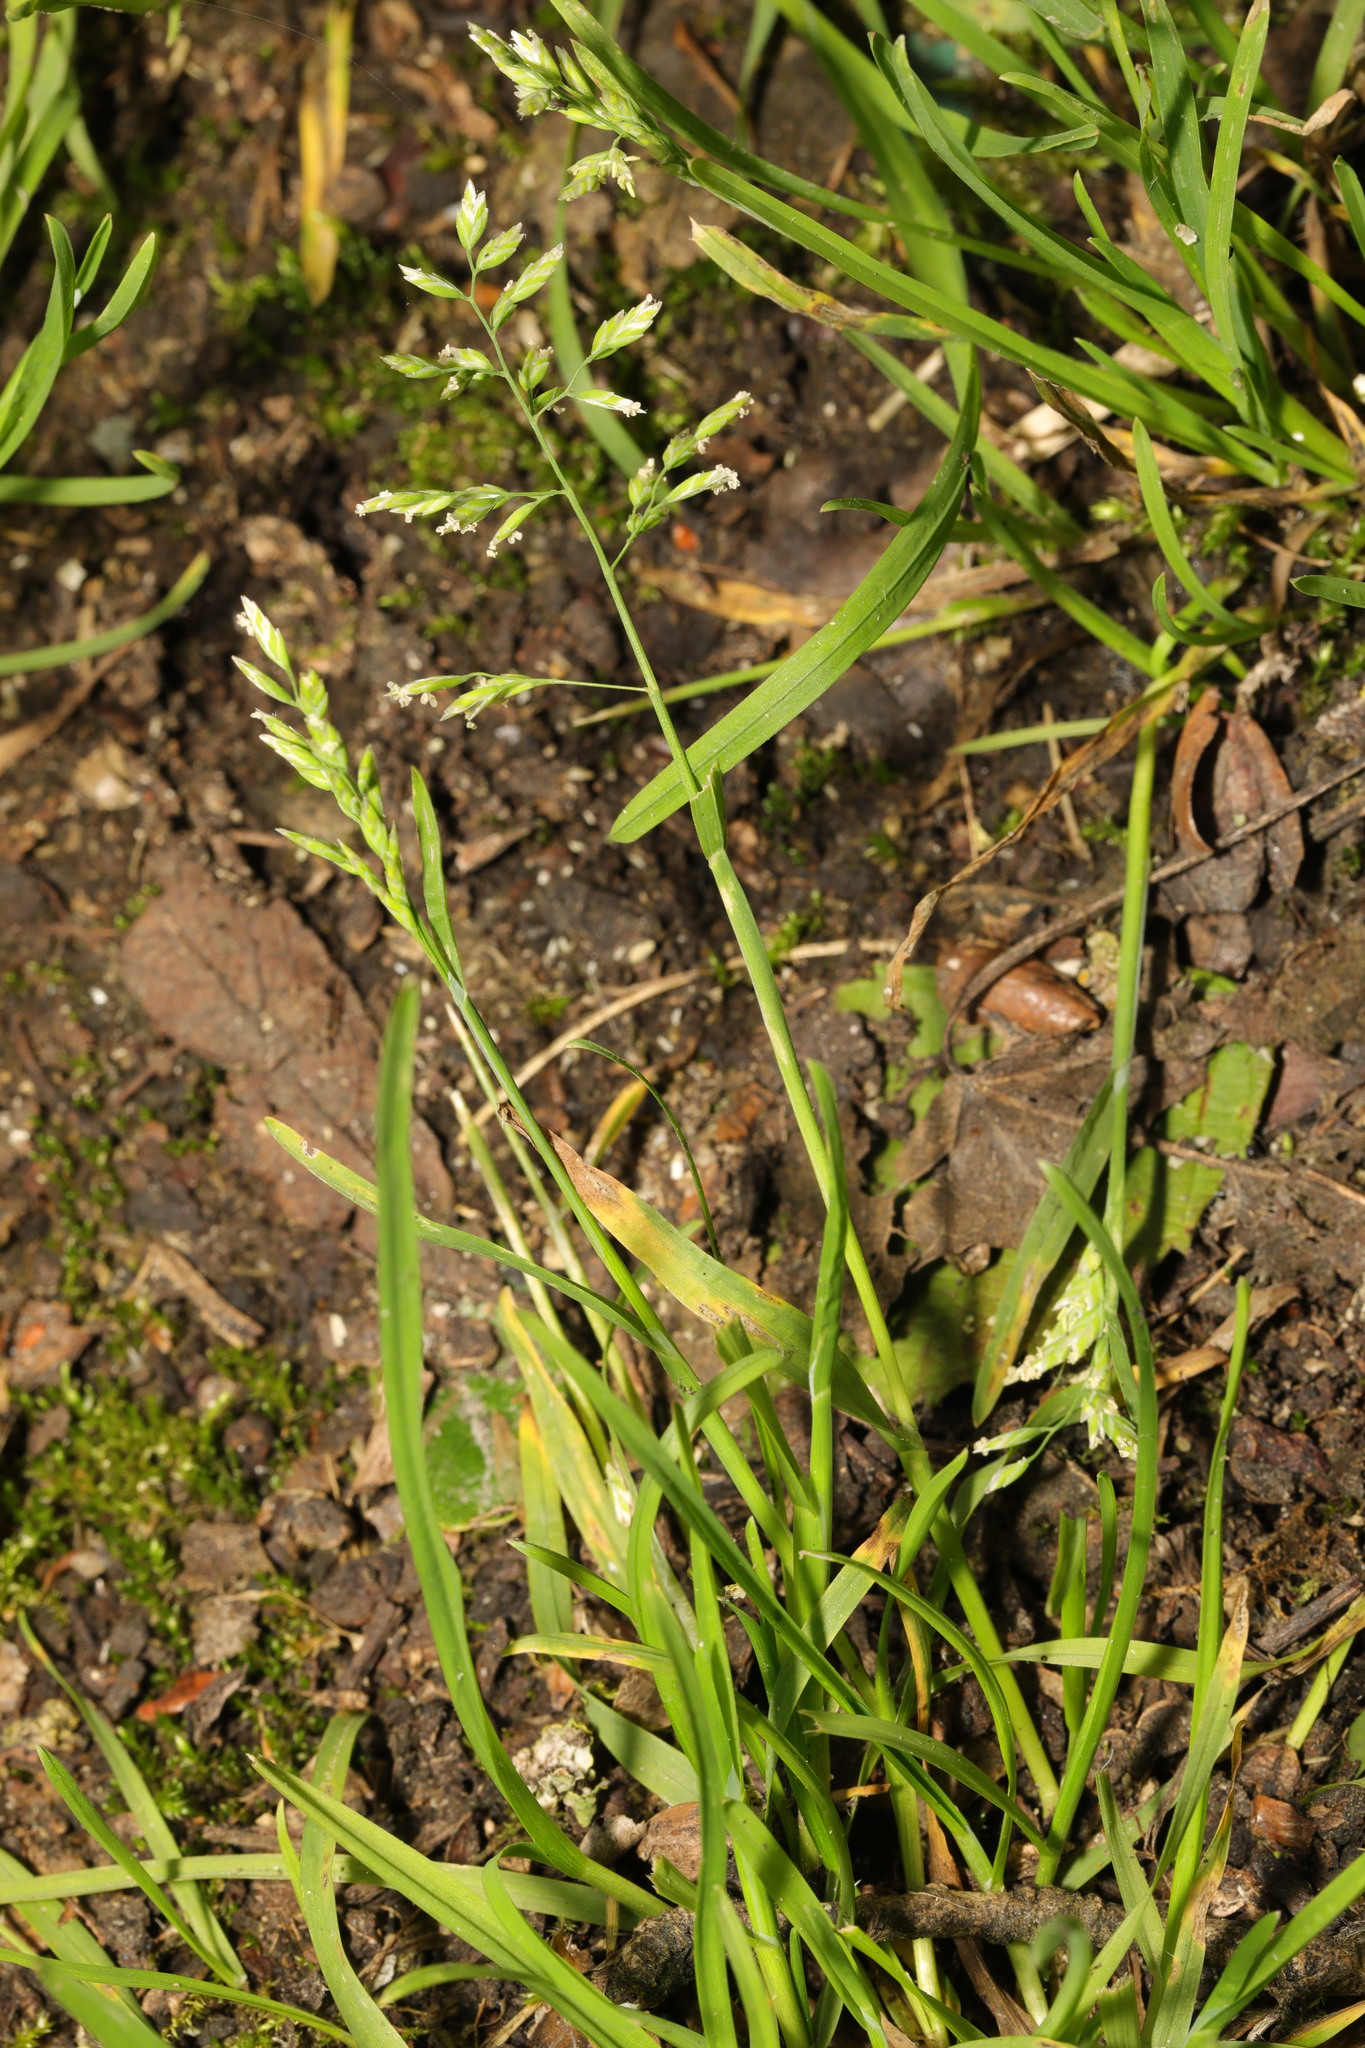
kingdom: Plantae
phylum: Tracheophyta
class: Liliopsida
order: Poales
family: Poaceae
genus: Poa
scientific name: Poa annua
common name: Annual bluegrass
